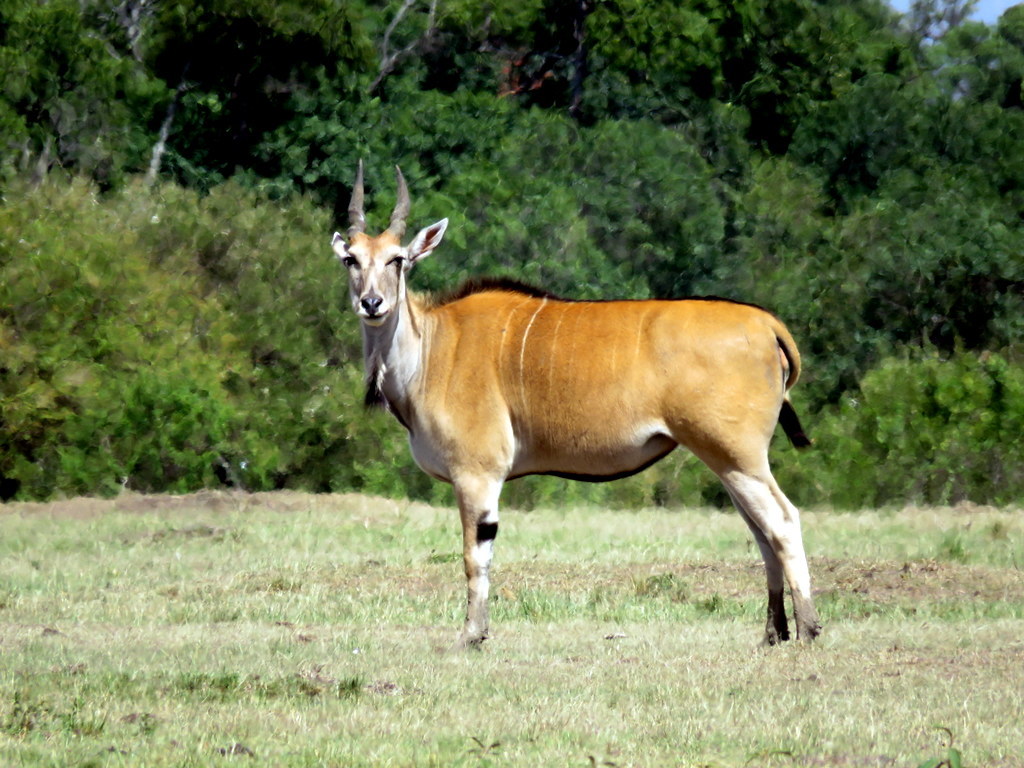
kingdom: Animalia
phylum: Chordata
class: Mammalia
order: Artiodactyla
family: Bovidae
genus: Taurotragus
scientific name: Taurotragus oryx
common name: Common eland
